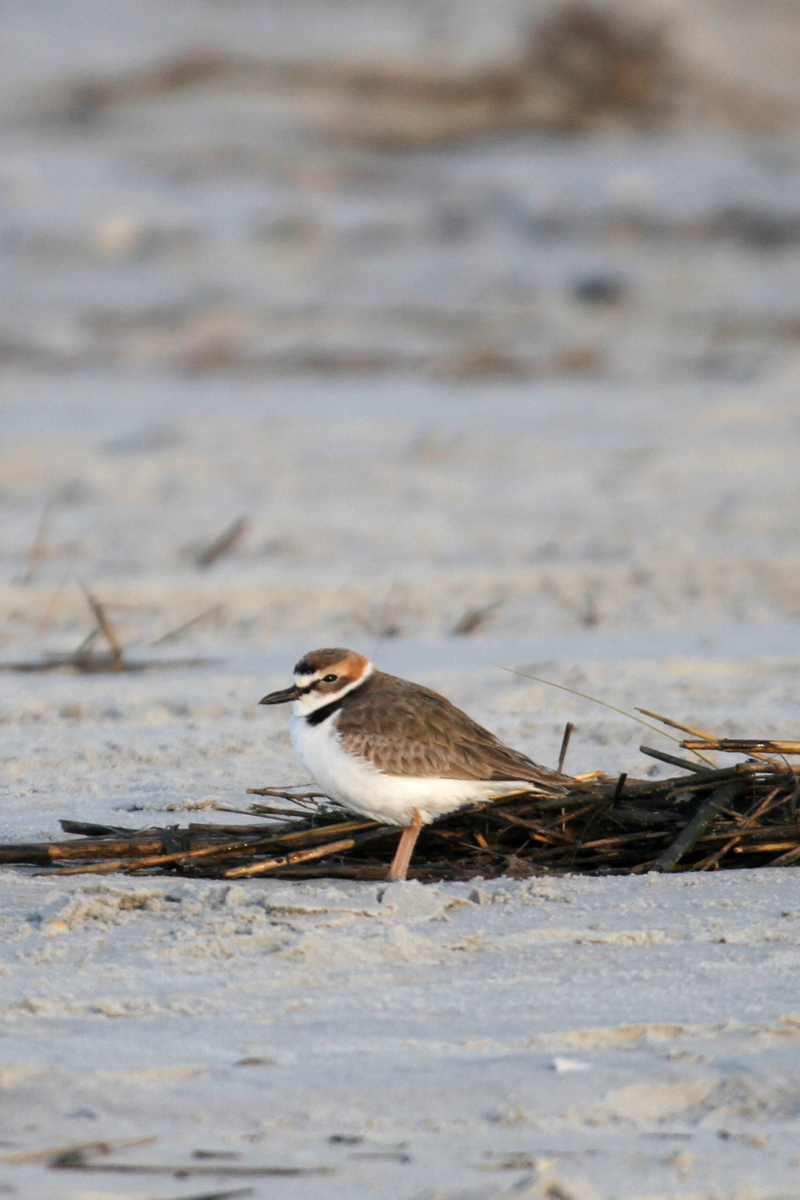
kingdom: Animalia
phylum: Chordata
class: Aves
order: Charadriiformes
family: Charadriidae
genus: Anarhynchus
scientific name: Anarhynchus
